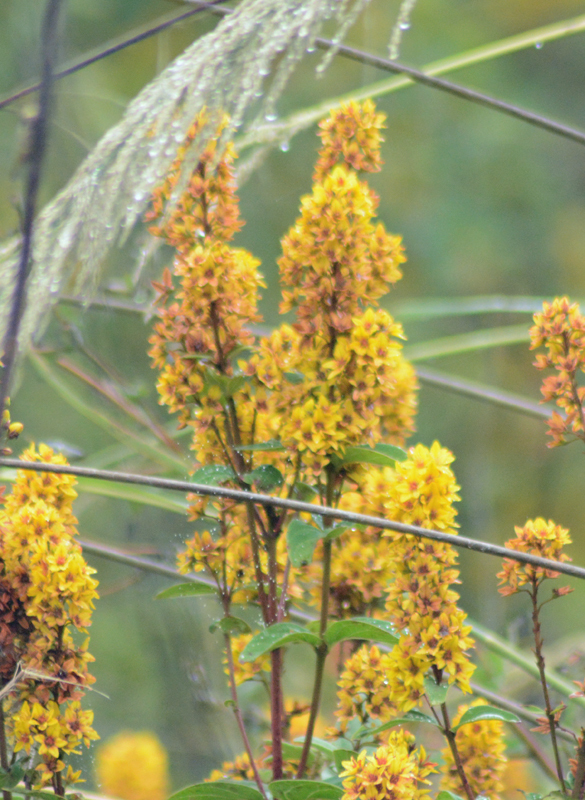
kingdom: Plantae
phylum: Tracheophyta
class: Magnoliopsida
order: Malpighiales
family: Malpighiaceae
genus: Galphimia
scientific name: Galphimia glauca
